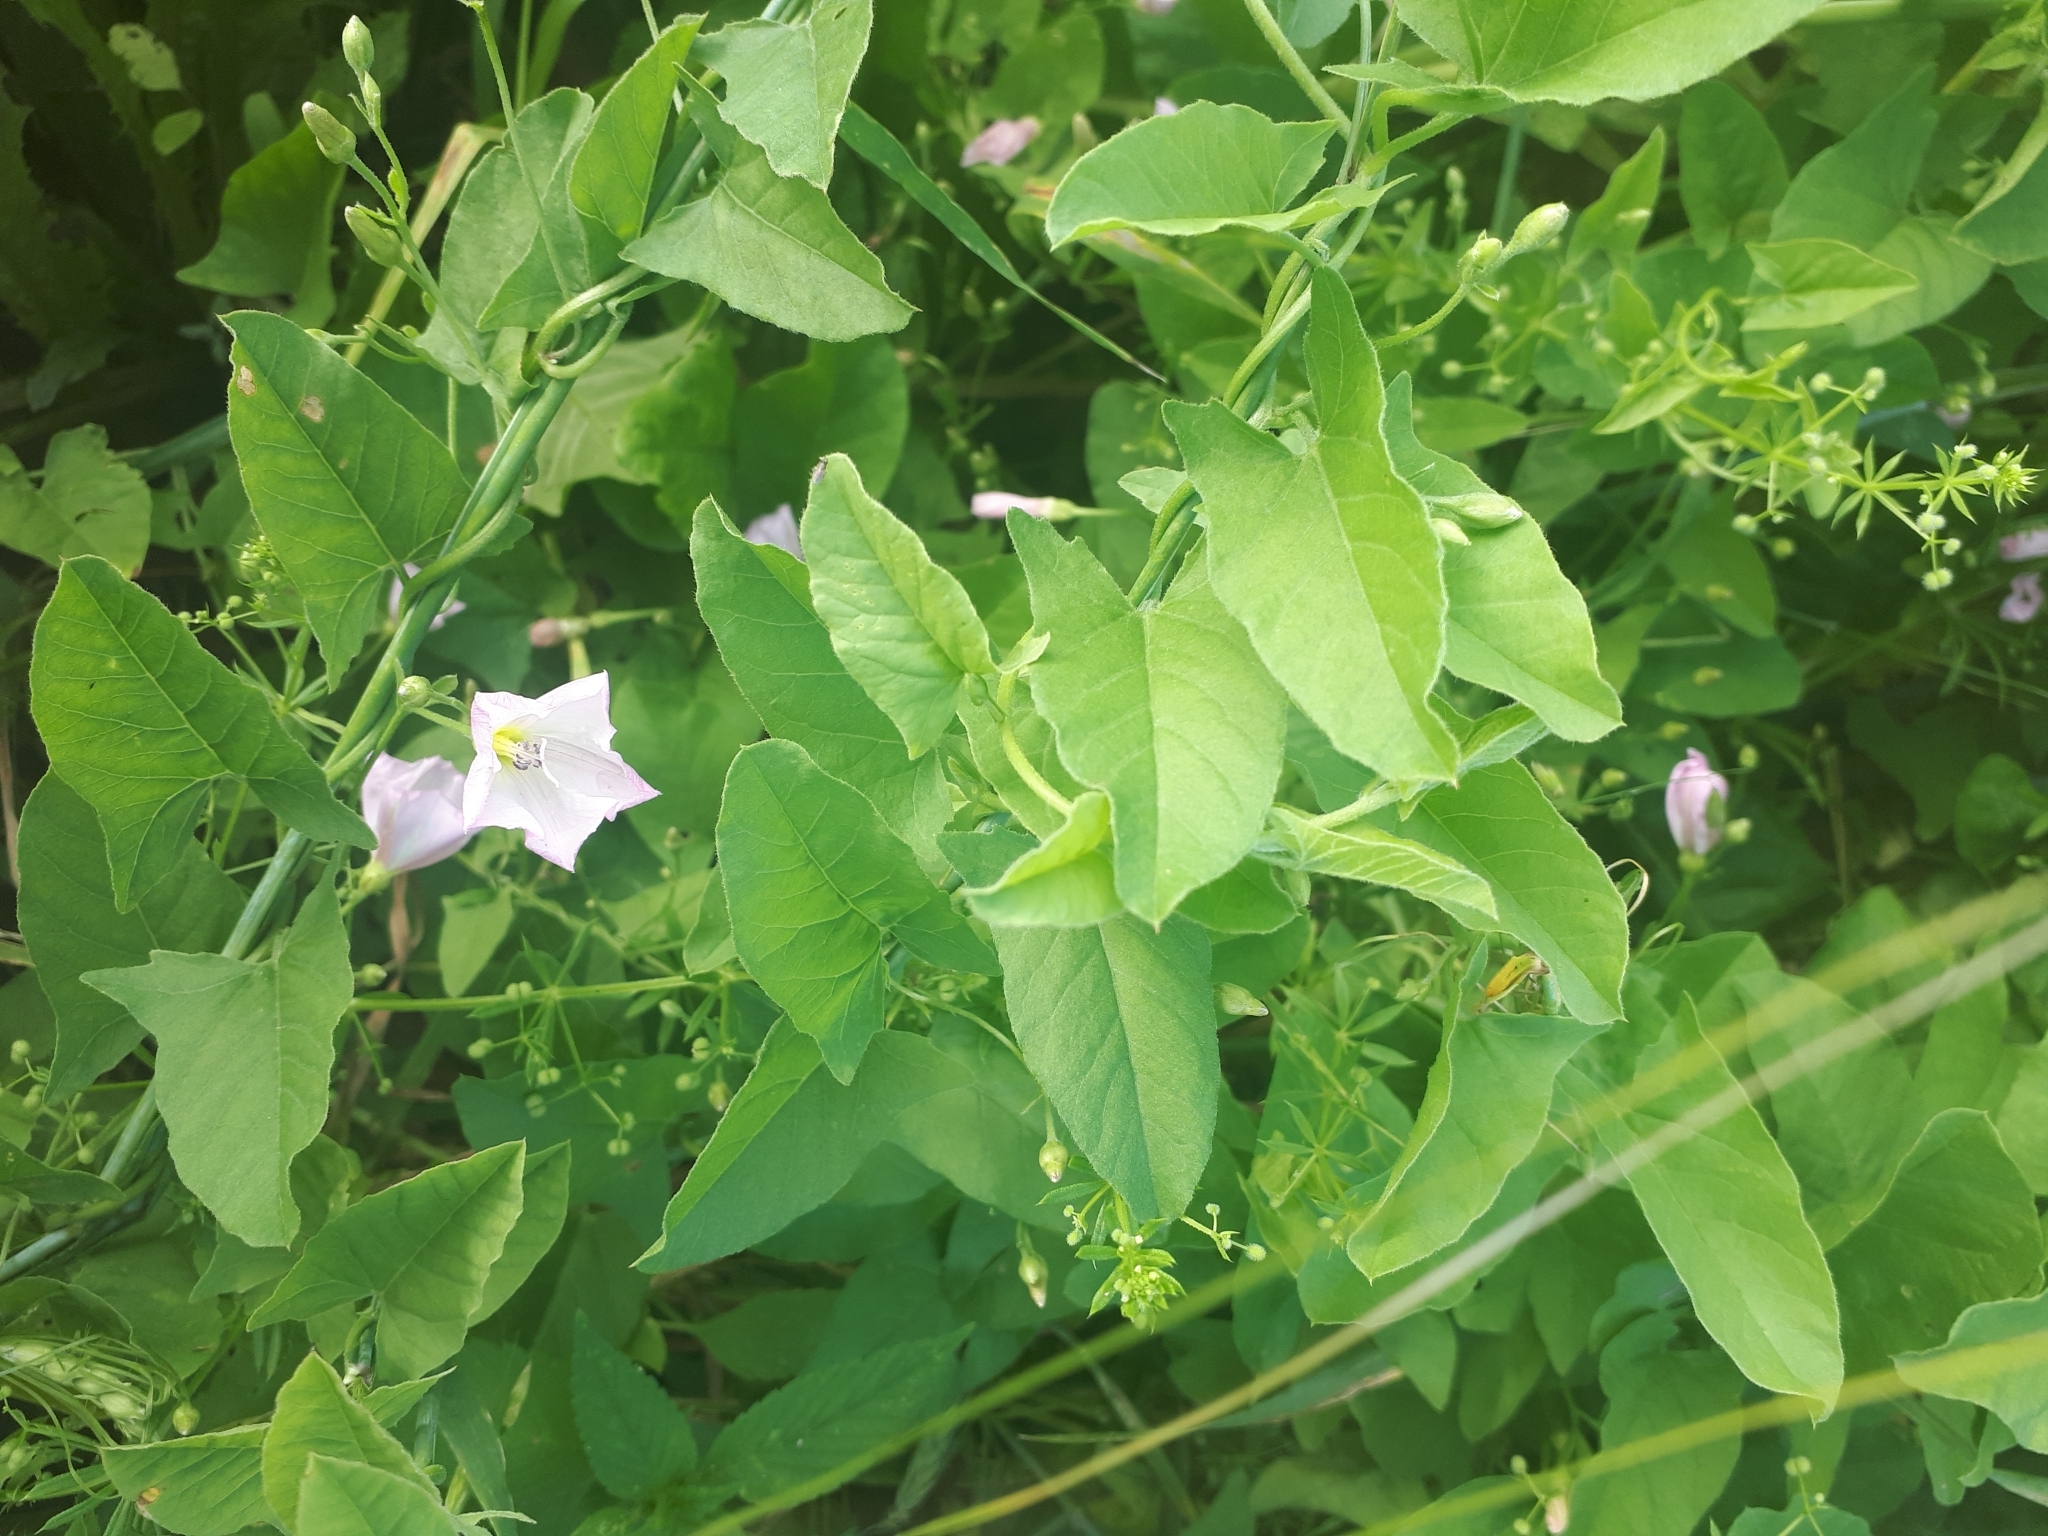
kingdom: Plantae
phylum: Tracheophyta
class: Magnoliopsida
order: Solanales
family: Convolvulaceae
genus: Convolvulus
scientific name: Convolvulus arvensis
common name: Field bindweed
